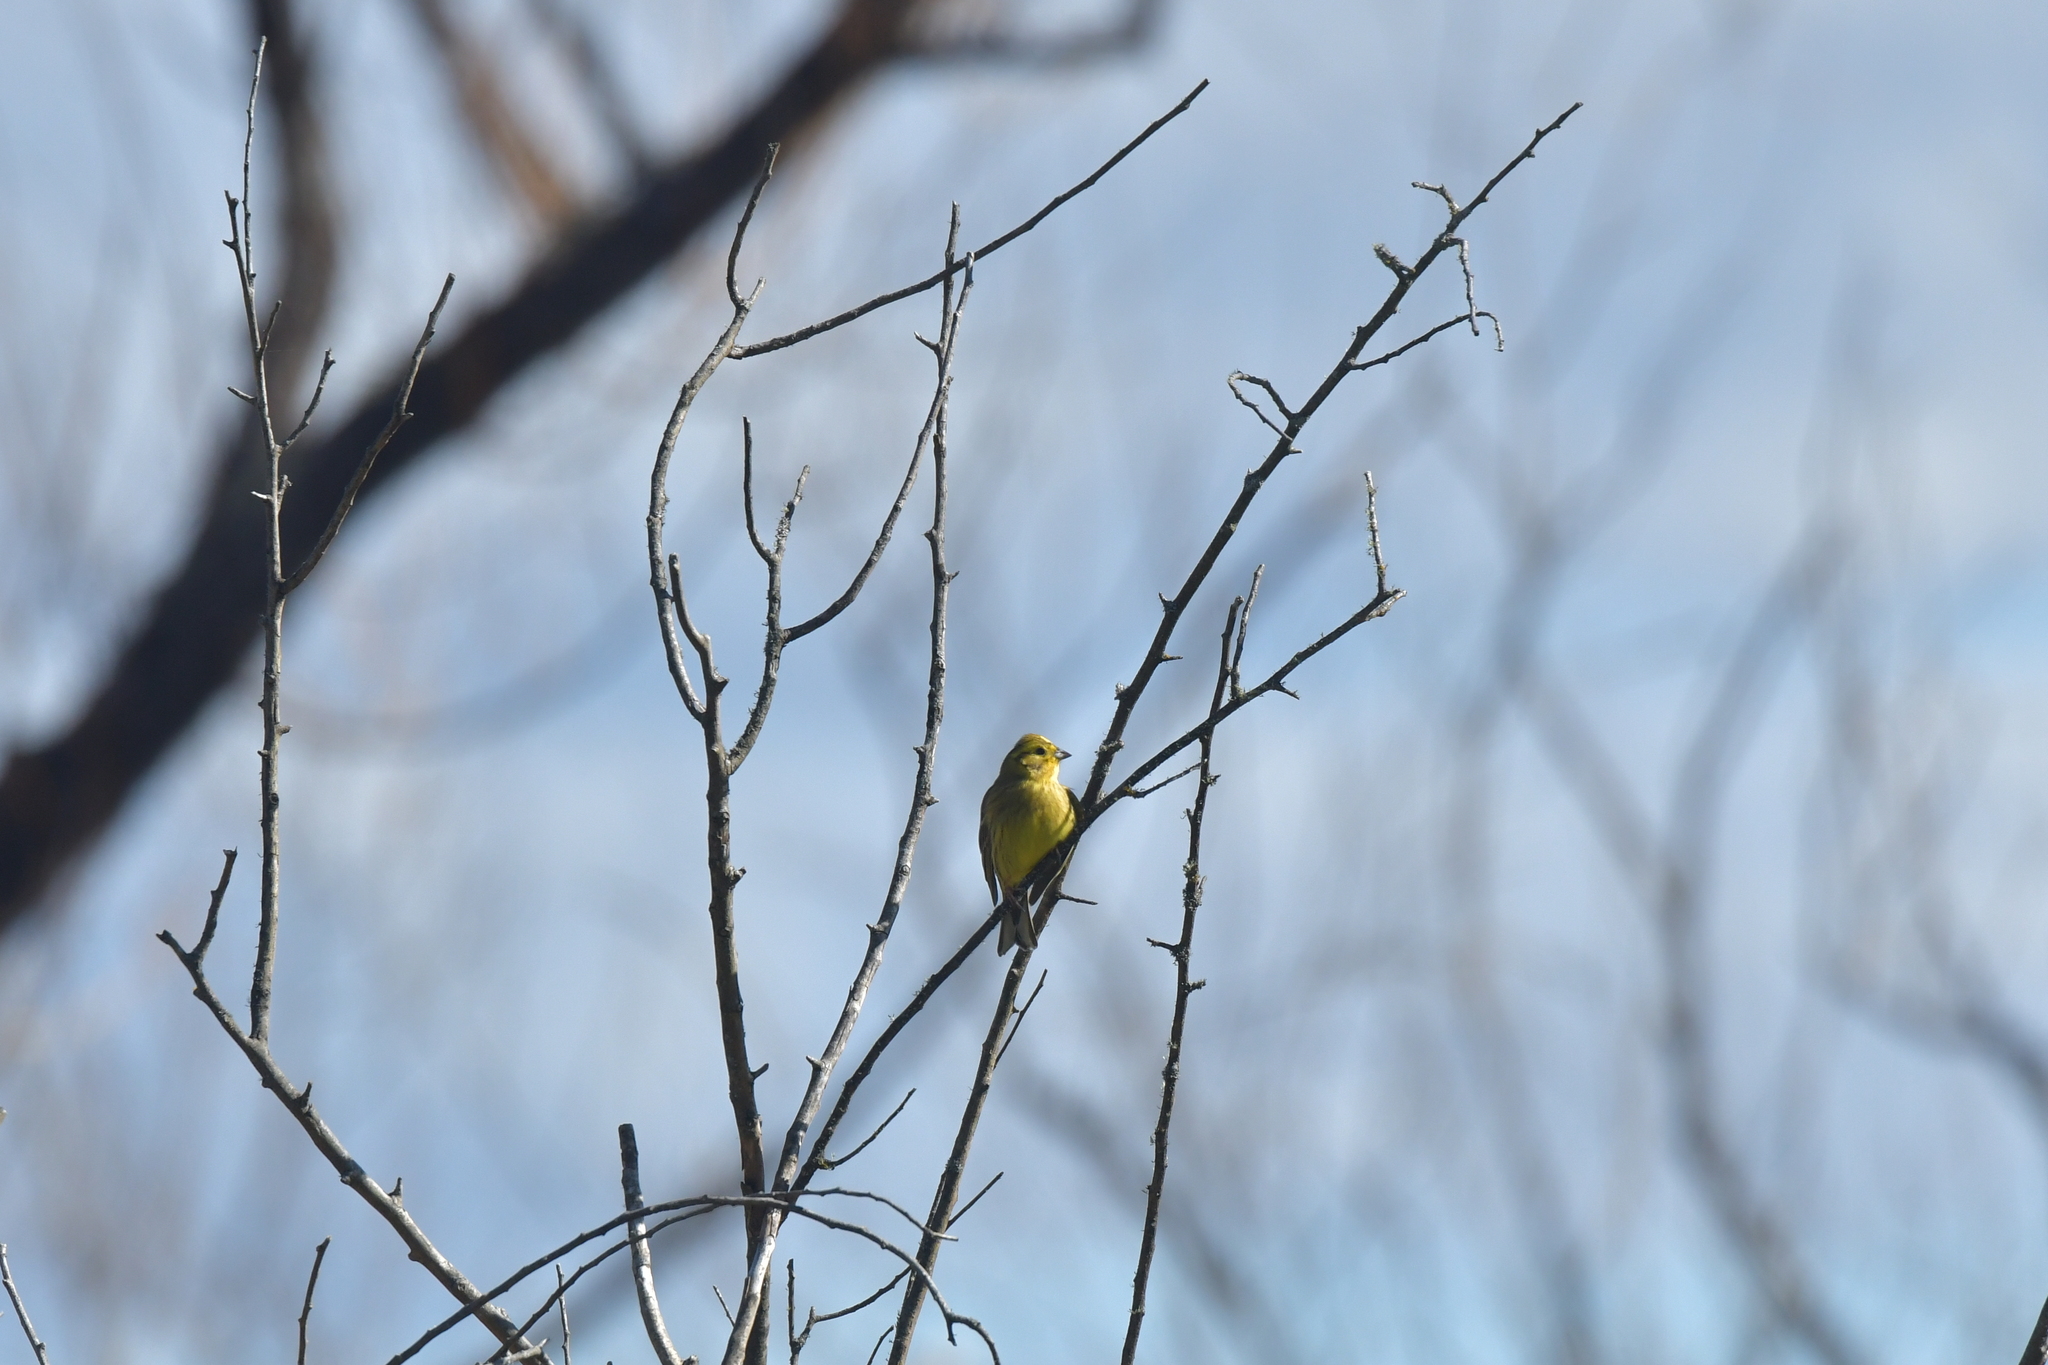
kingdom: Animalia
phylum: Chordata
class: Aves
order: Passeriformes
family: Emberizidae
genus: Emberiza
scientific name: Emberiza citrinella
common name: Yellowhammer
